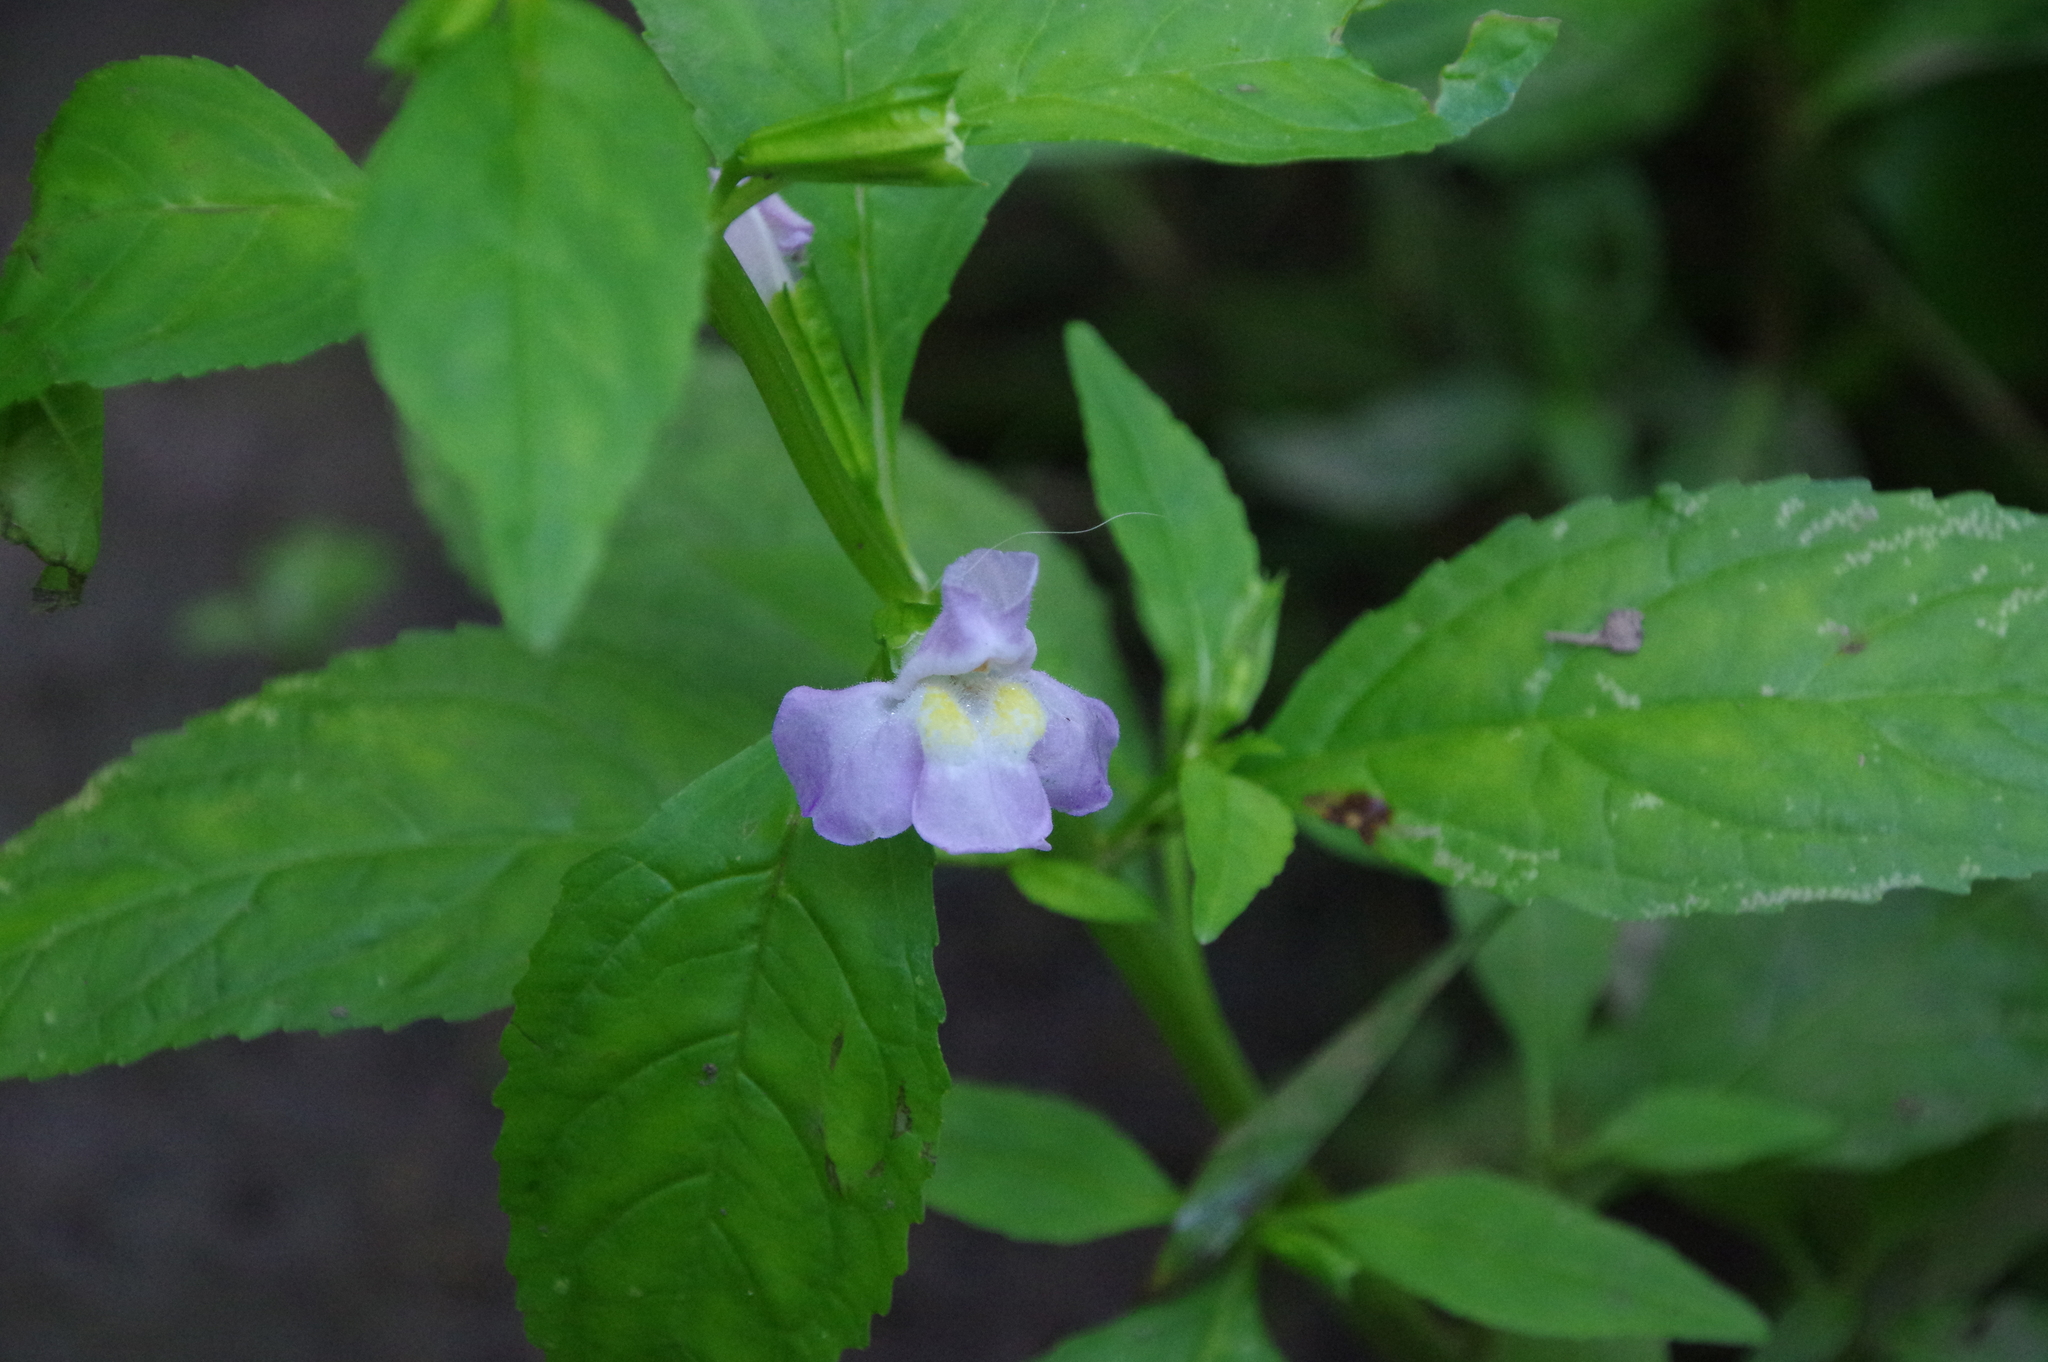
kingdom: Plantae
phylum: Tracheophyta
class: Magnoliopsida
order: Lamiales
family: Phrymaceae
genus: Mimulus
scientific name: Mimulus alatus
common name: Sharp-wing monkey-flower
